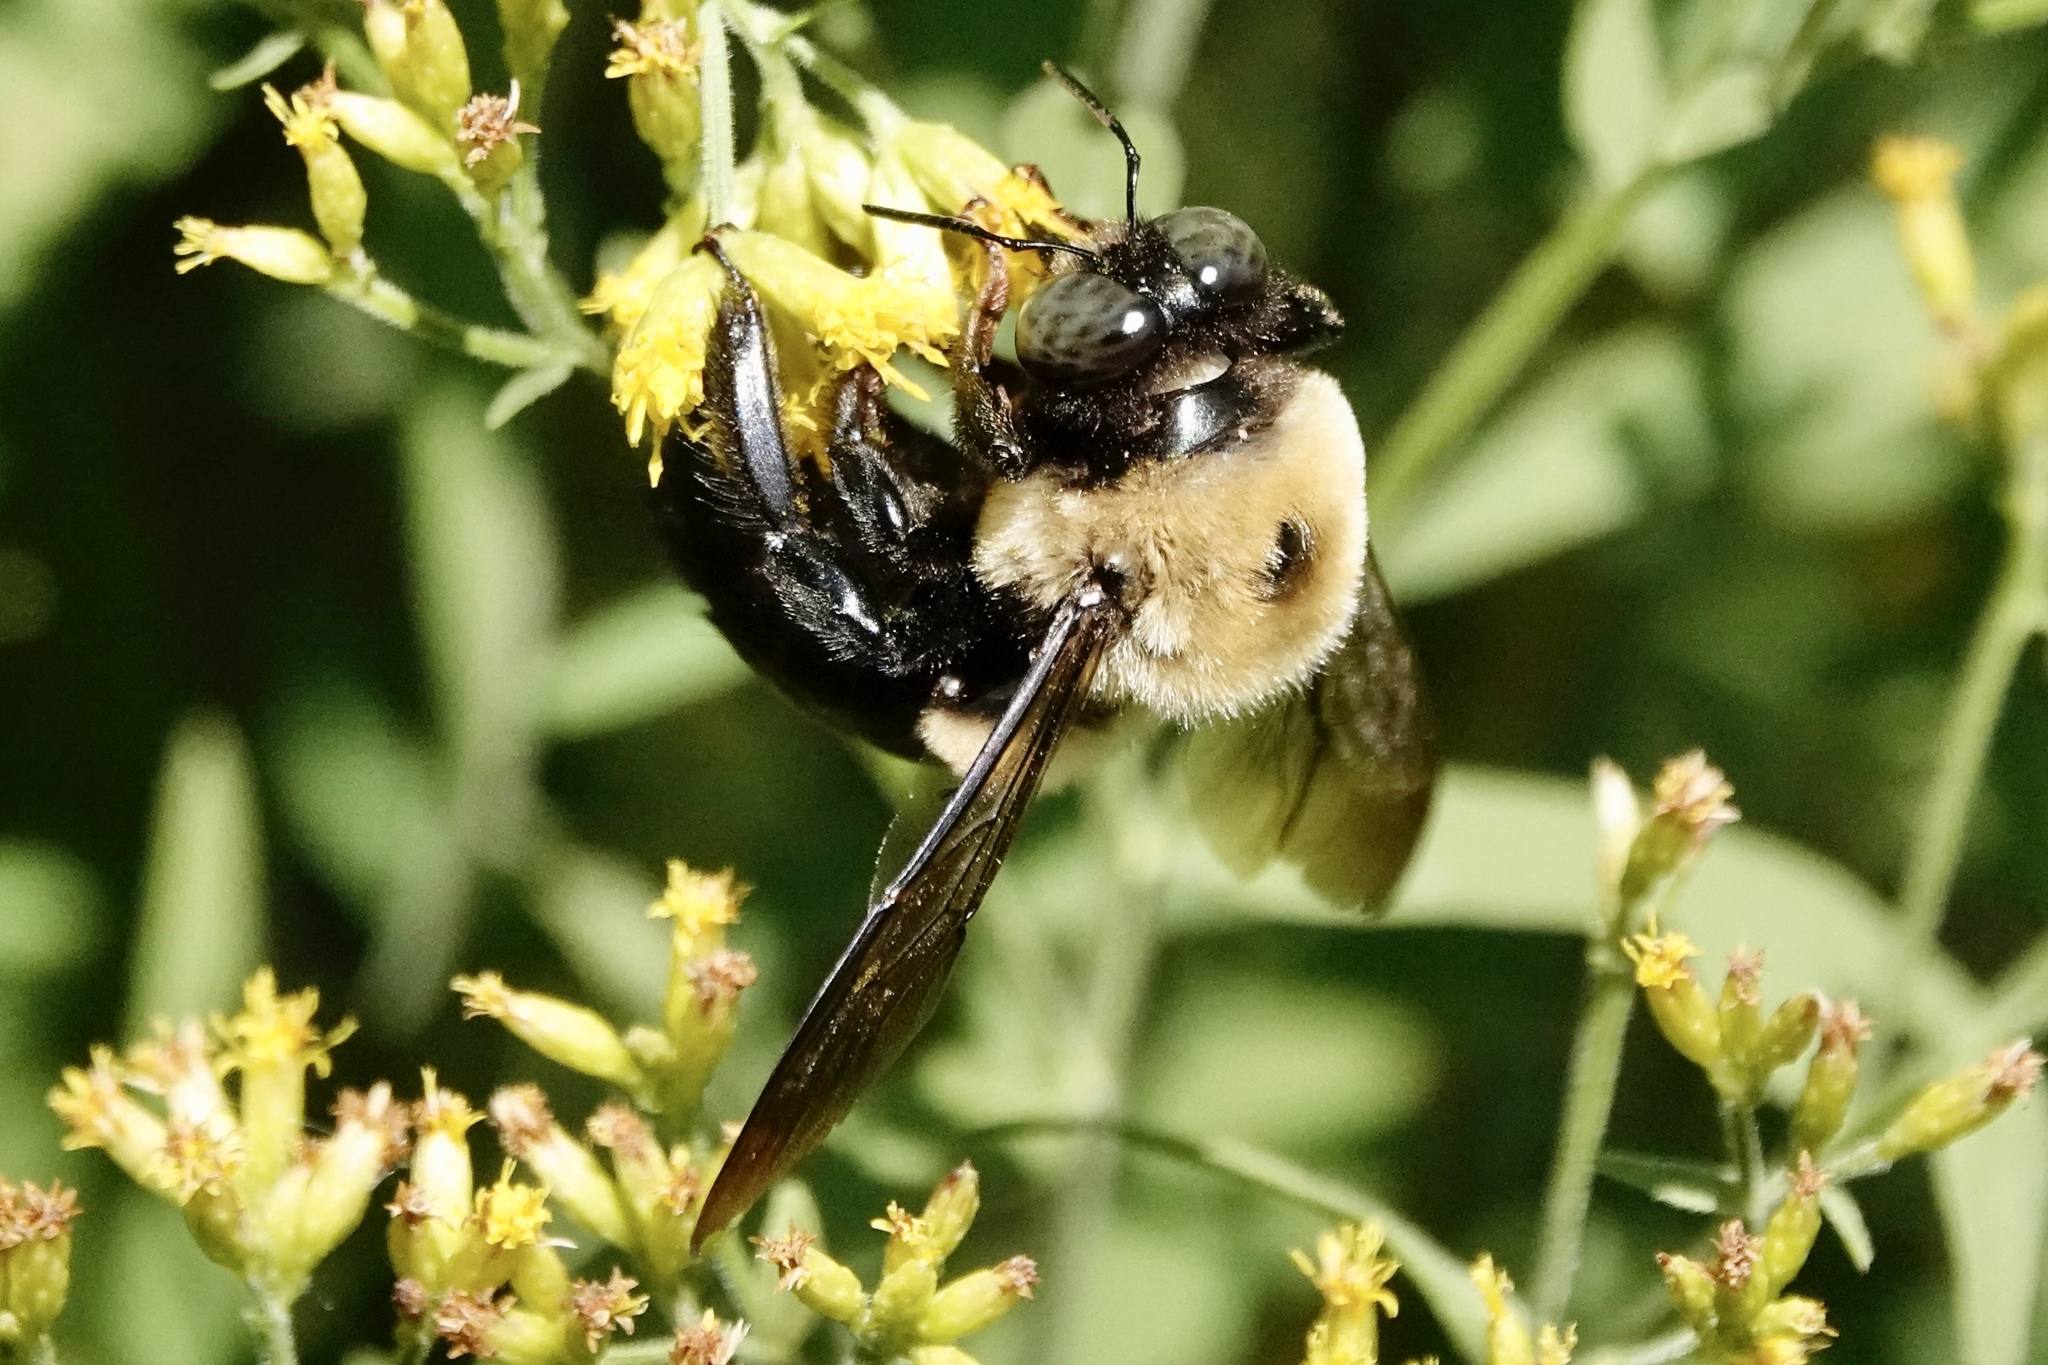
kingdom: Animalia
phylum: Arthropoda
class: Insecta
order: Hymenoptera
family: Apidae
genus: Xylocopa
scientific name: Xylocopa virginica
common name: Carpenter bee
